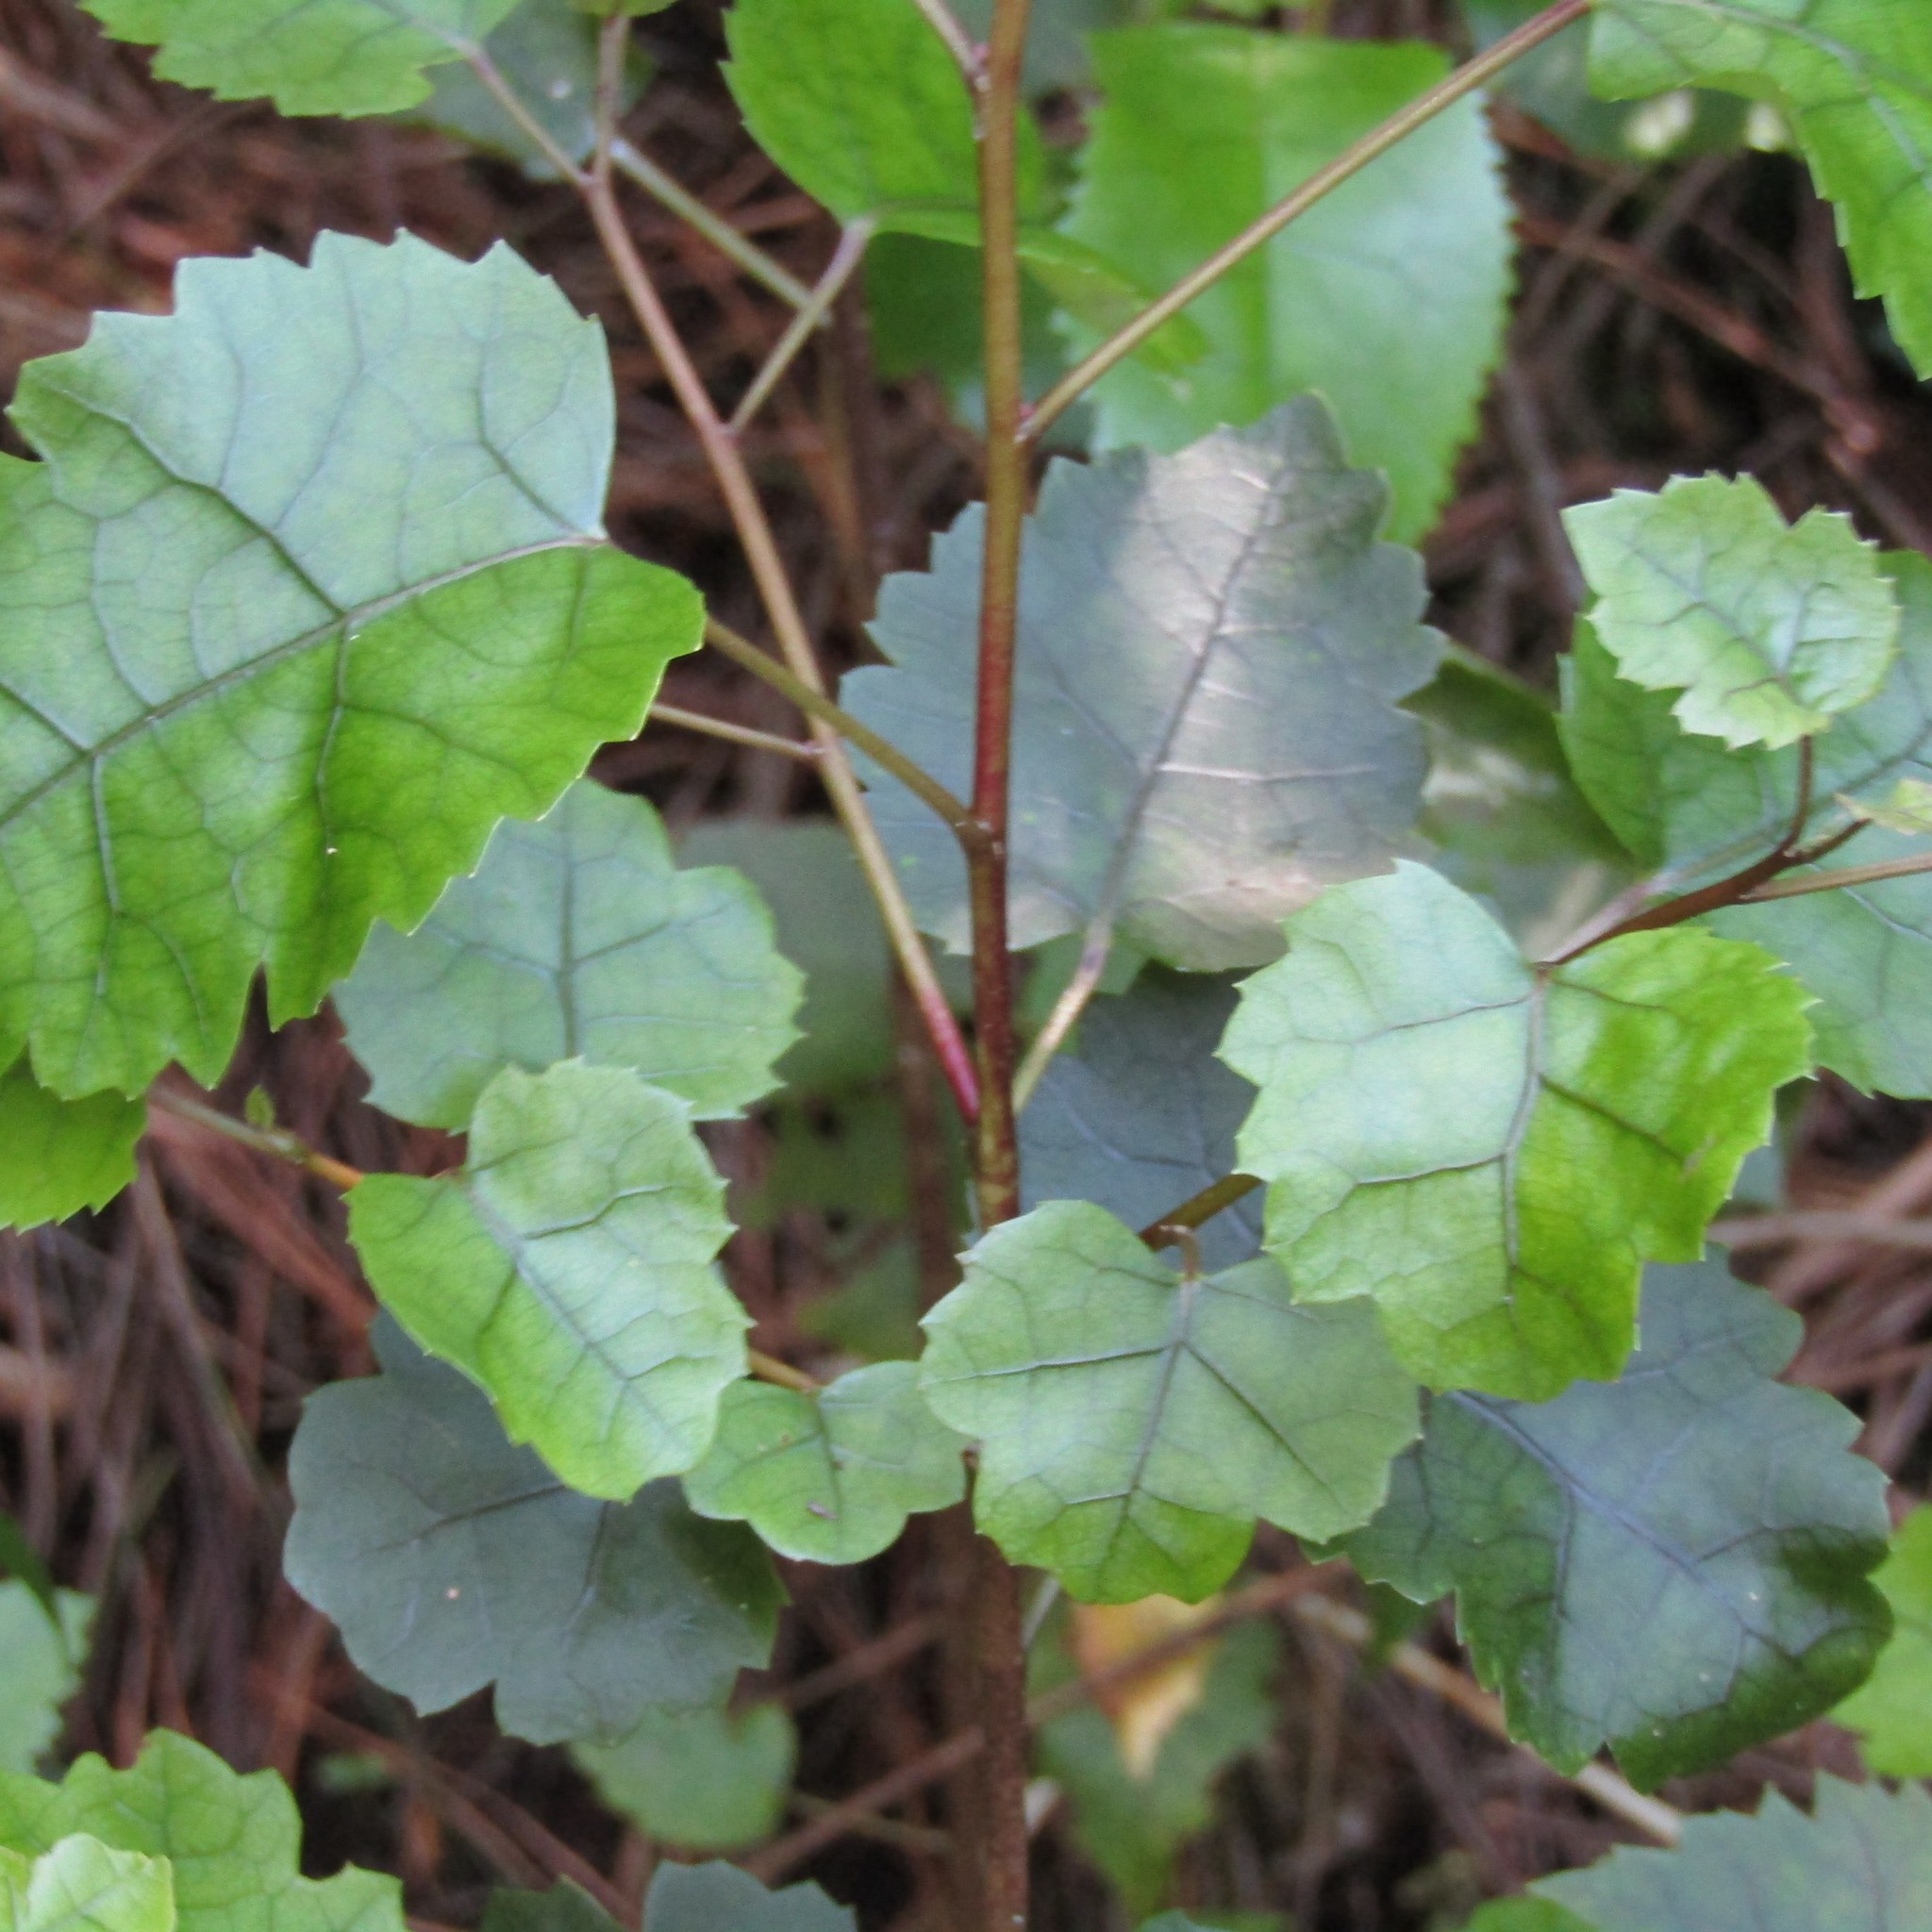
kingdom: Plantae
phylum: Tracheophyta
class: Magnoliopsida
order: Malvales
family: Malvaceae
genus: Hoheria
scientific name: Hoheria populnea
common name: Lacebark
